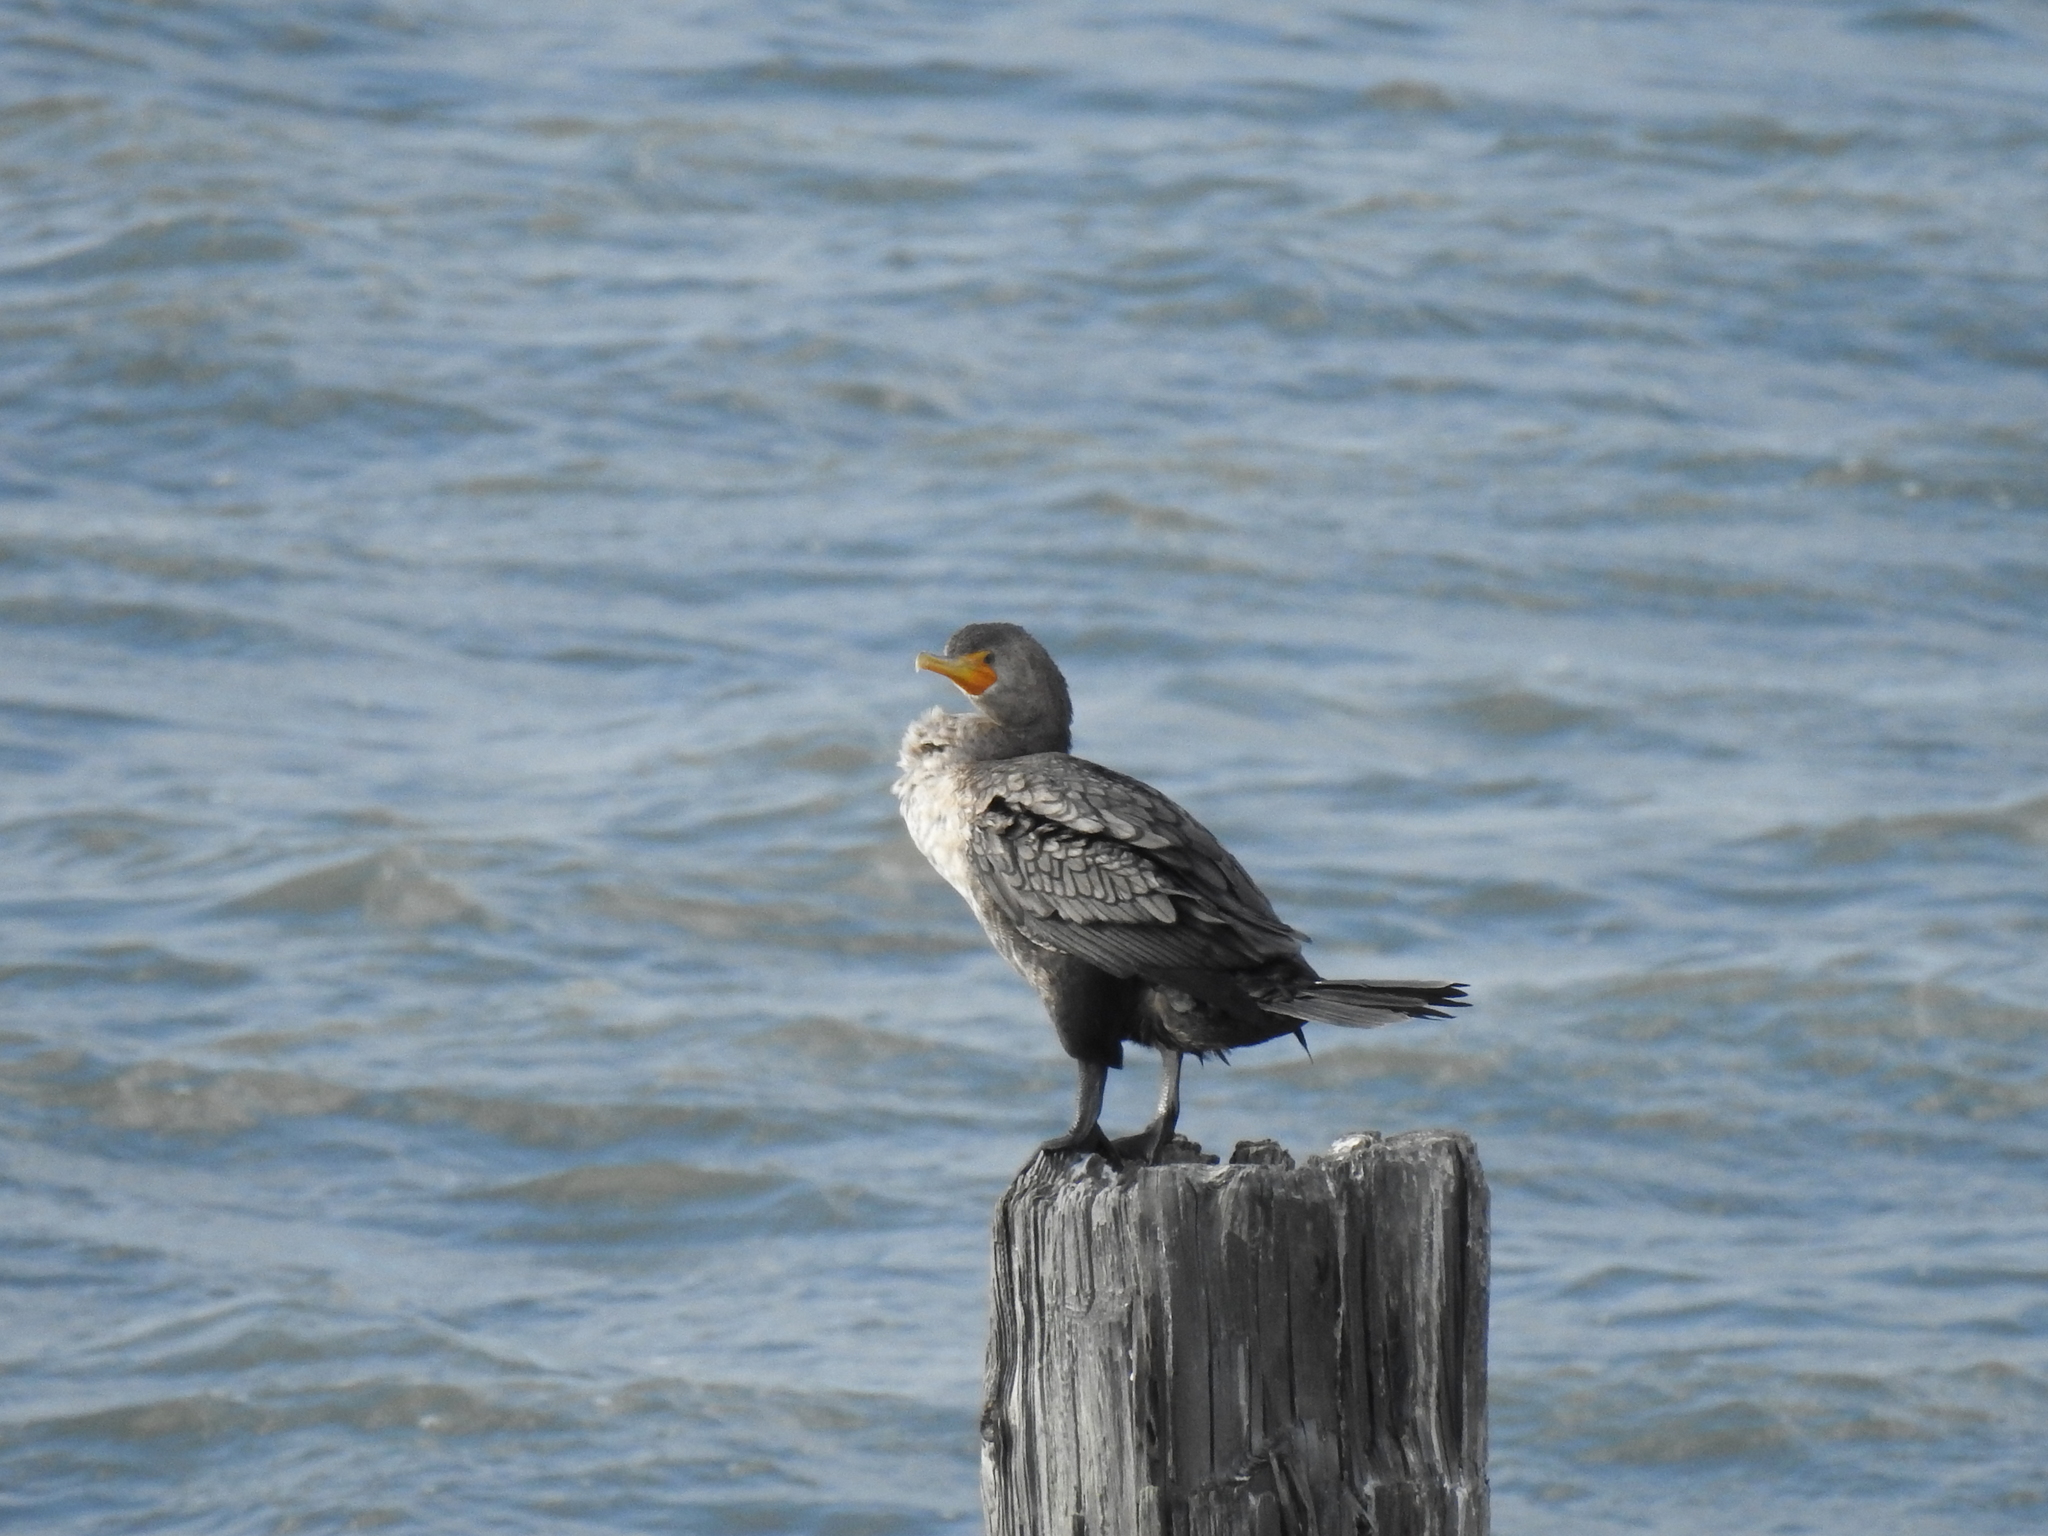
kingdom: Animalia
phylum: Chordata
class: Aves
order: Suliformes
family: Phalacrocoracidae
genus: Phalacrocorax
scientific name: Phalacrocorax auritus
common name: Double-crested cormorant
